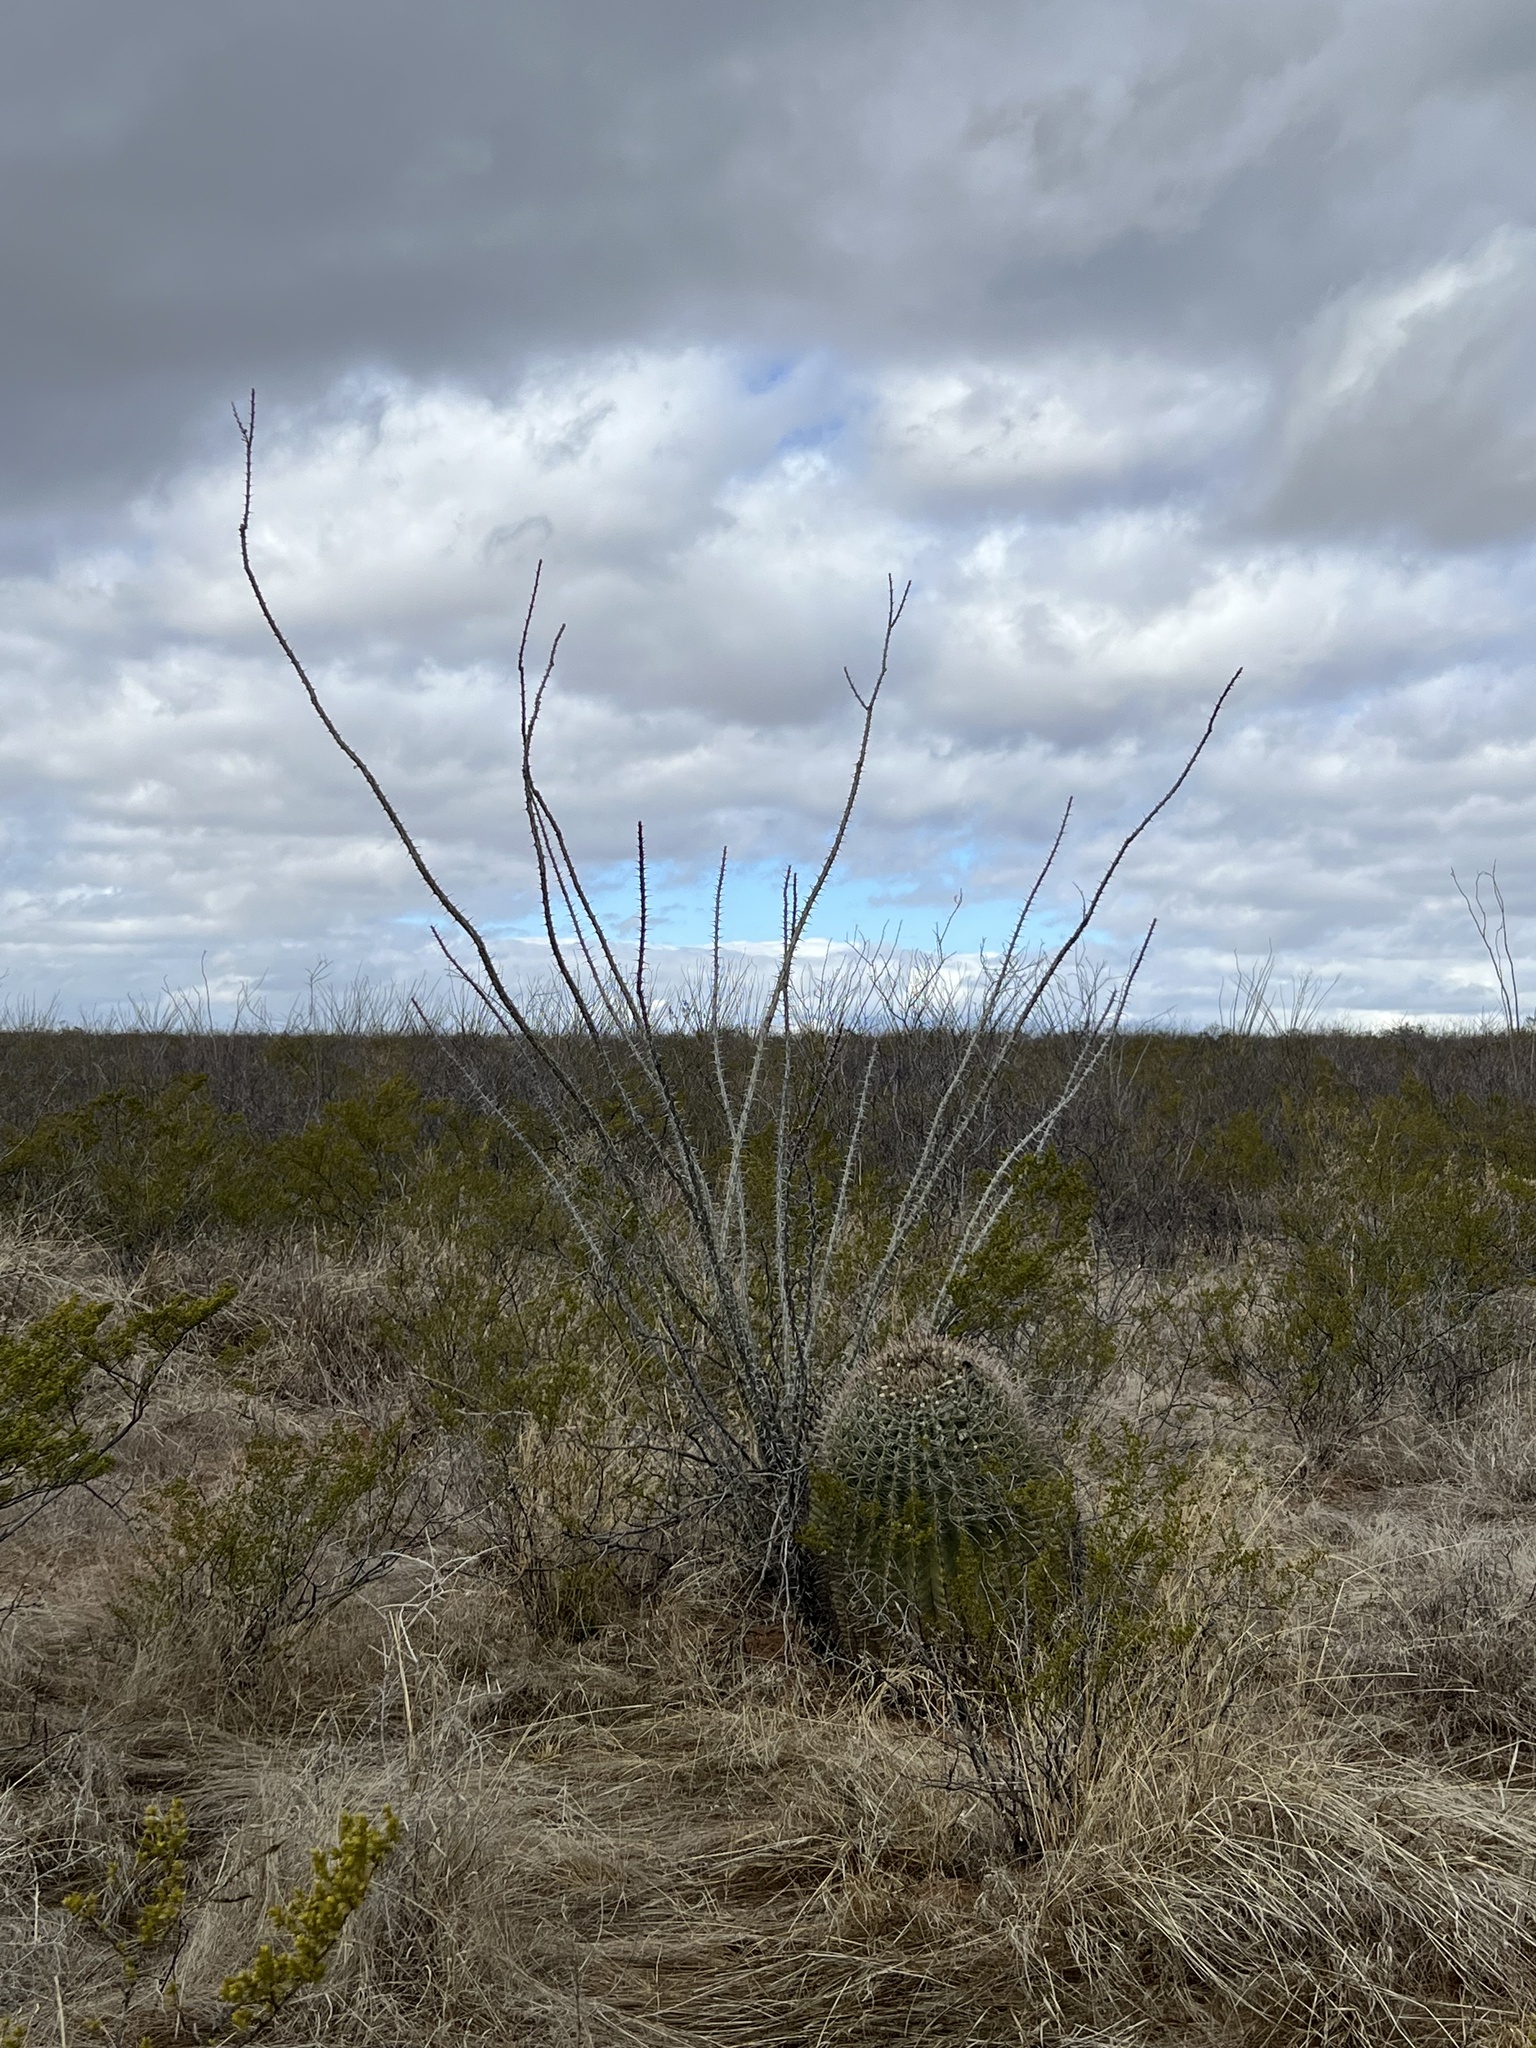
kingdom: Plantae
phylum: Tracheophyta
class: Magnoliopsida
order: Ericales
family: Fouquieriaceae
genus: Fouquieria
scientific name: Fouquieria splendens
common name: Vine-cactus
